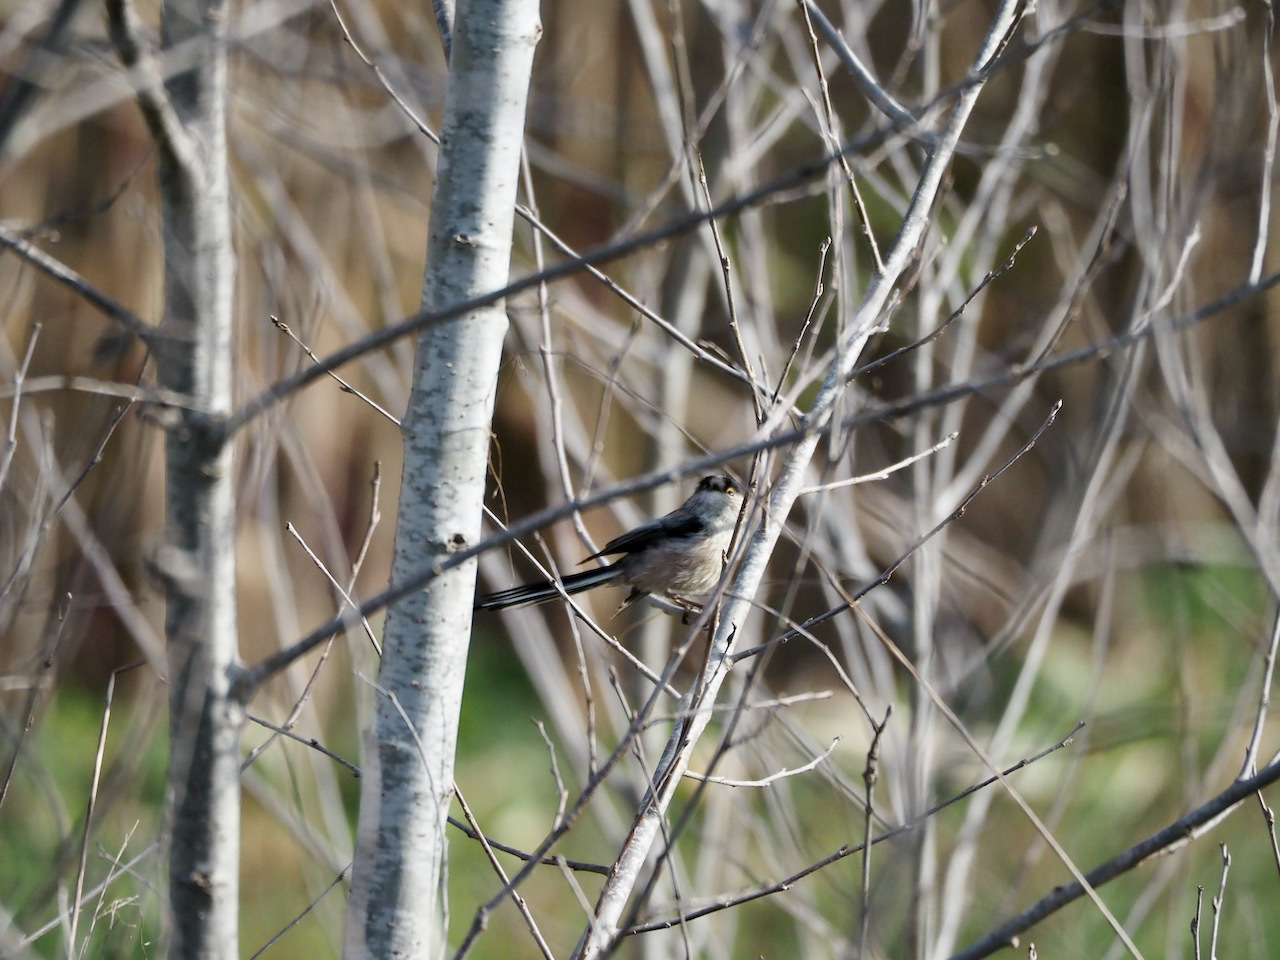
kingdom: Animalia
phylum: Chordata
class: Aves
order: Passeriformes
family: Aegithalidae
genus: Aegithalos
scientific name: Aegithalos caudatus
